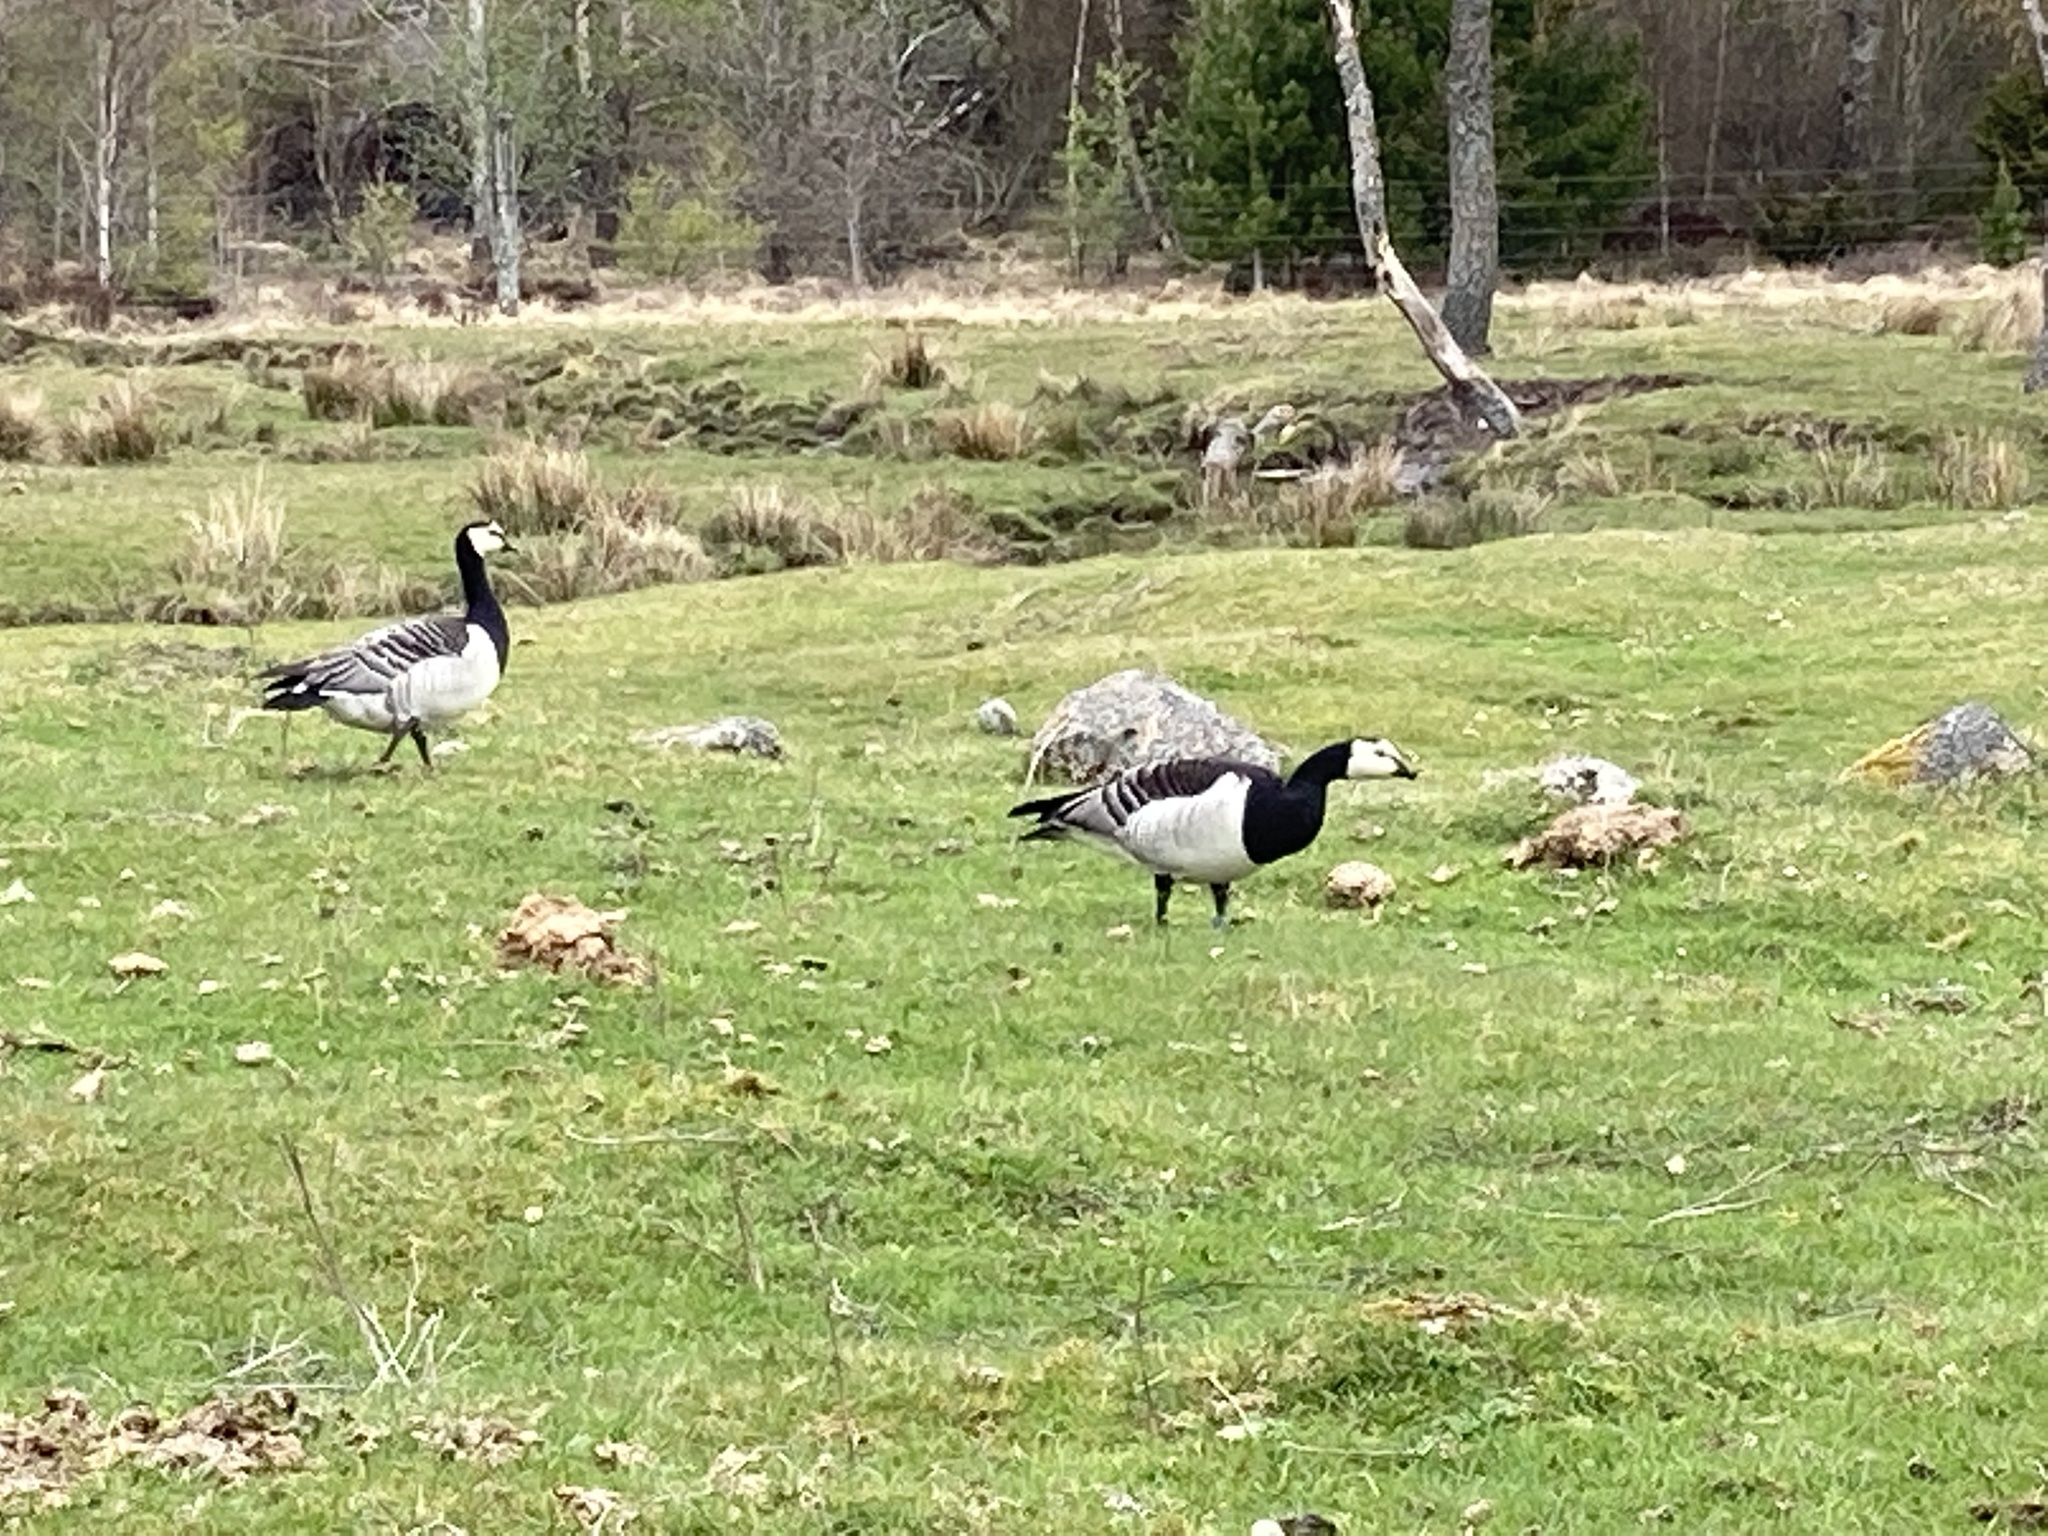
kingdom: Animalia
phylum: Chordata
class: Aves
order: Anseriformes
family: Anatidae
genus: Branta
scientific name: Branta leucopsis
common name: Barnacle goose
